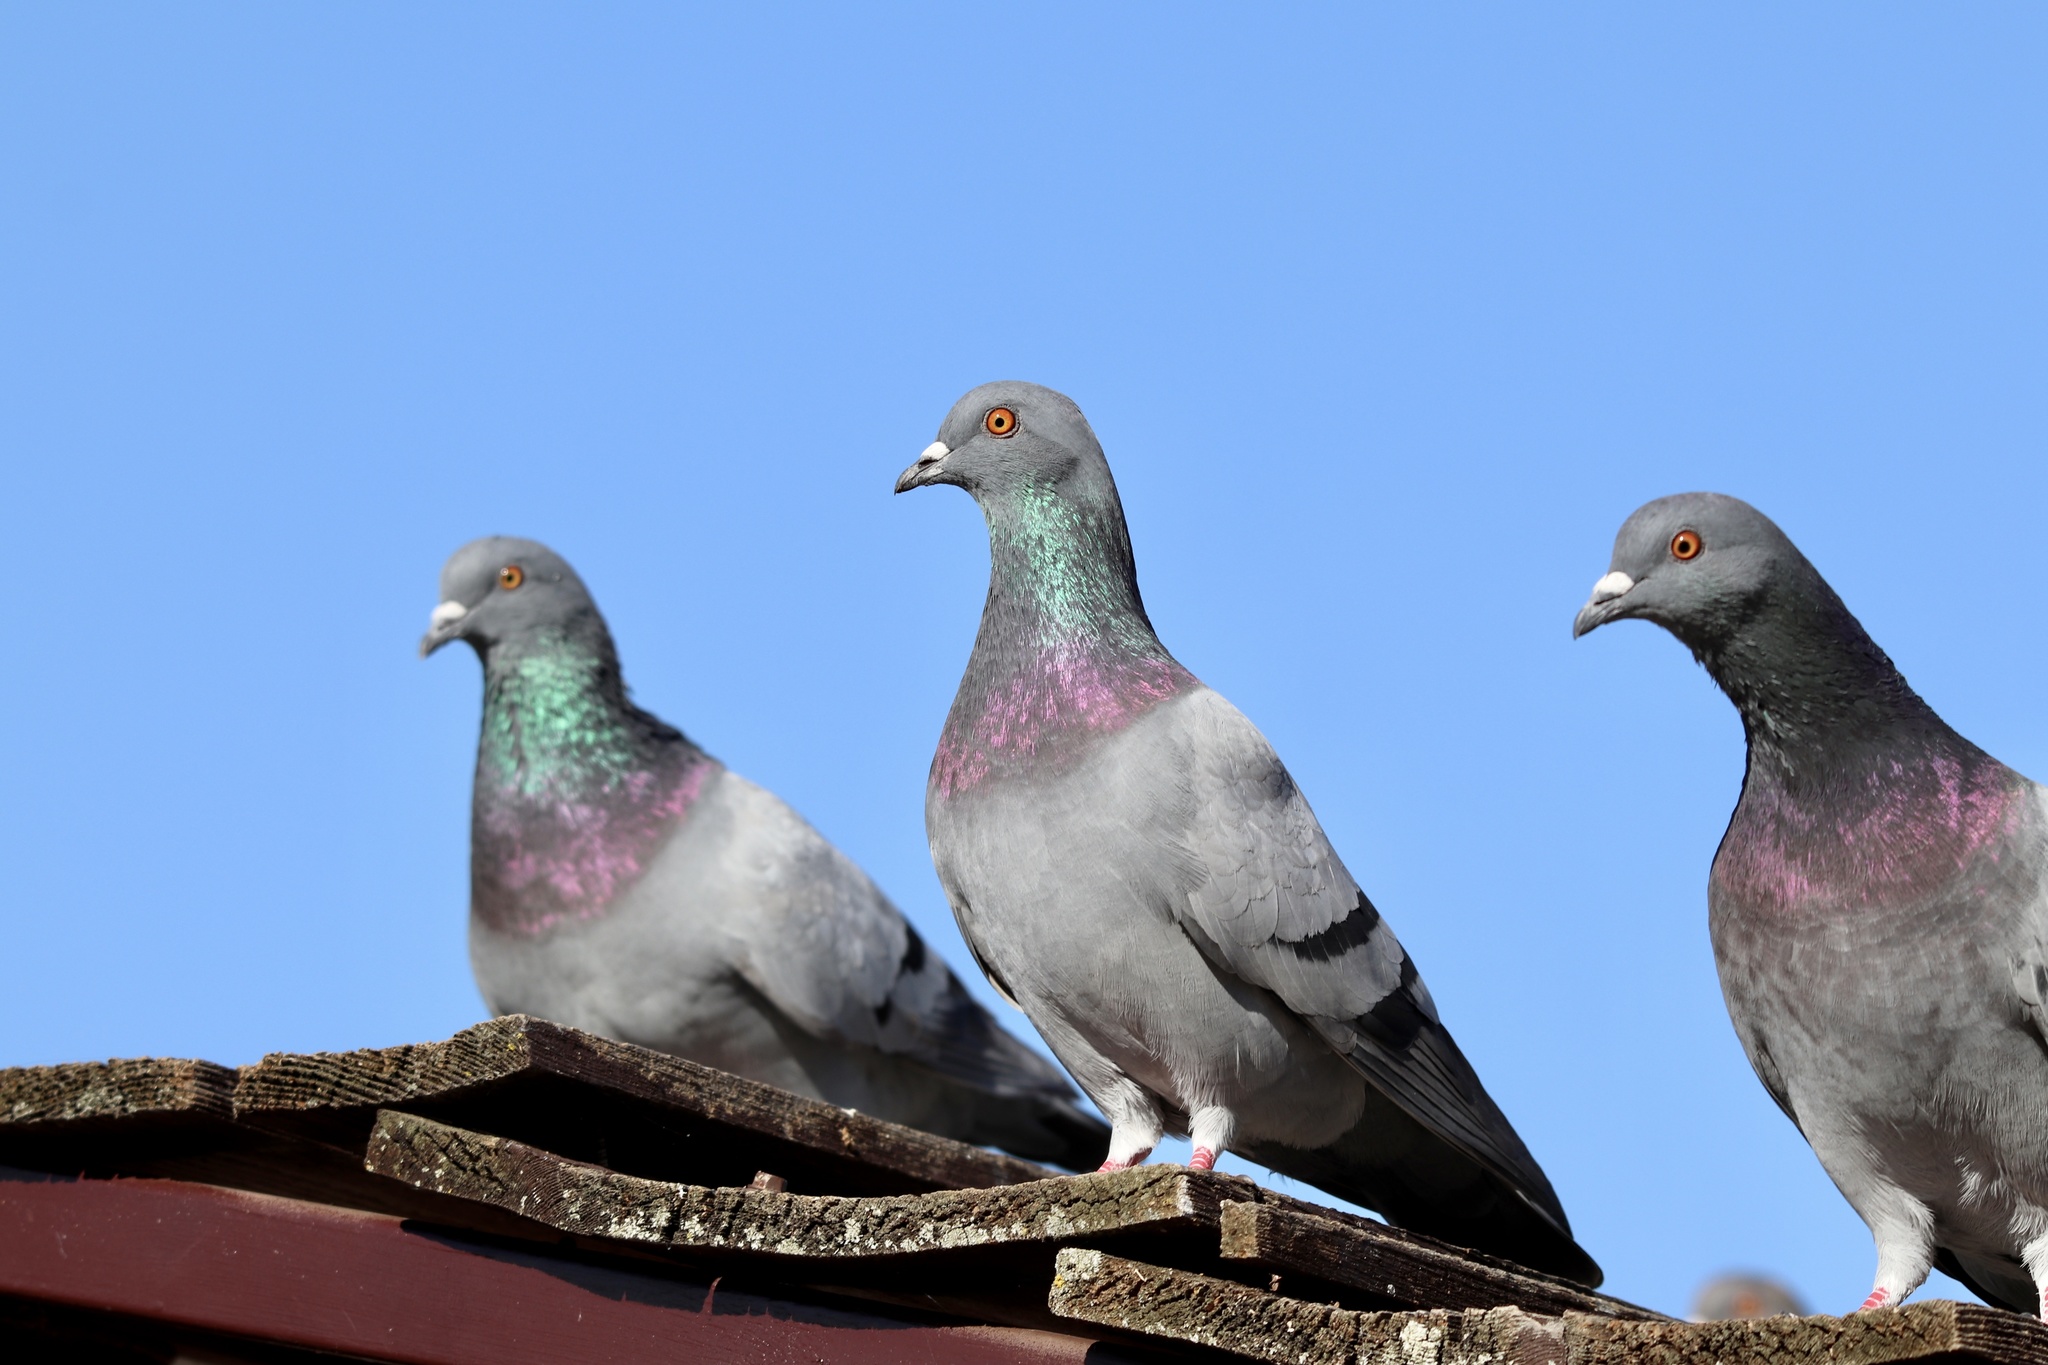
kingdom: Animalia
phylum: Chordata
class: Aves
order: Columbiformes
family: Columbidae
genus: Columba
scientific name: Columba livia
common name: Rock pigeon
